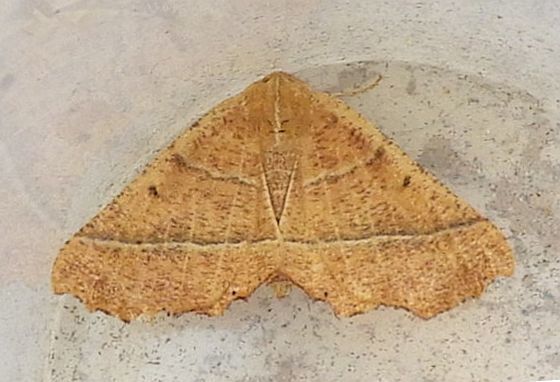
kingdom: Animalia
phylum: Arthropoda
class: Insecta
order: Lepidoptera
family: Geometridae
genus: Pero
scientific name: Pero radiosaria
